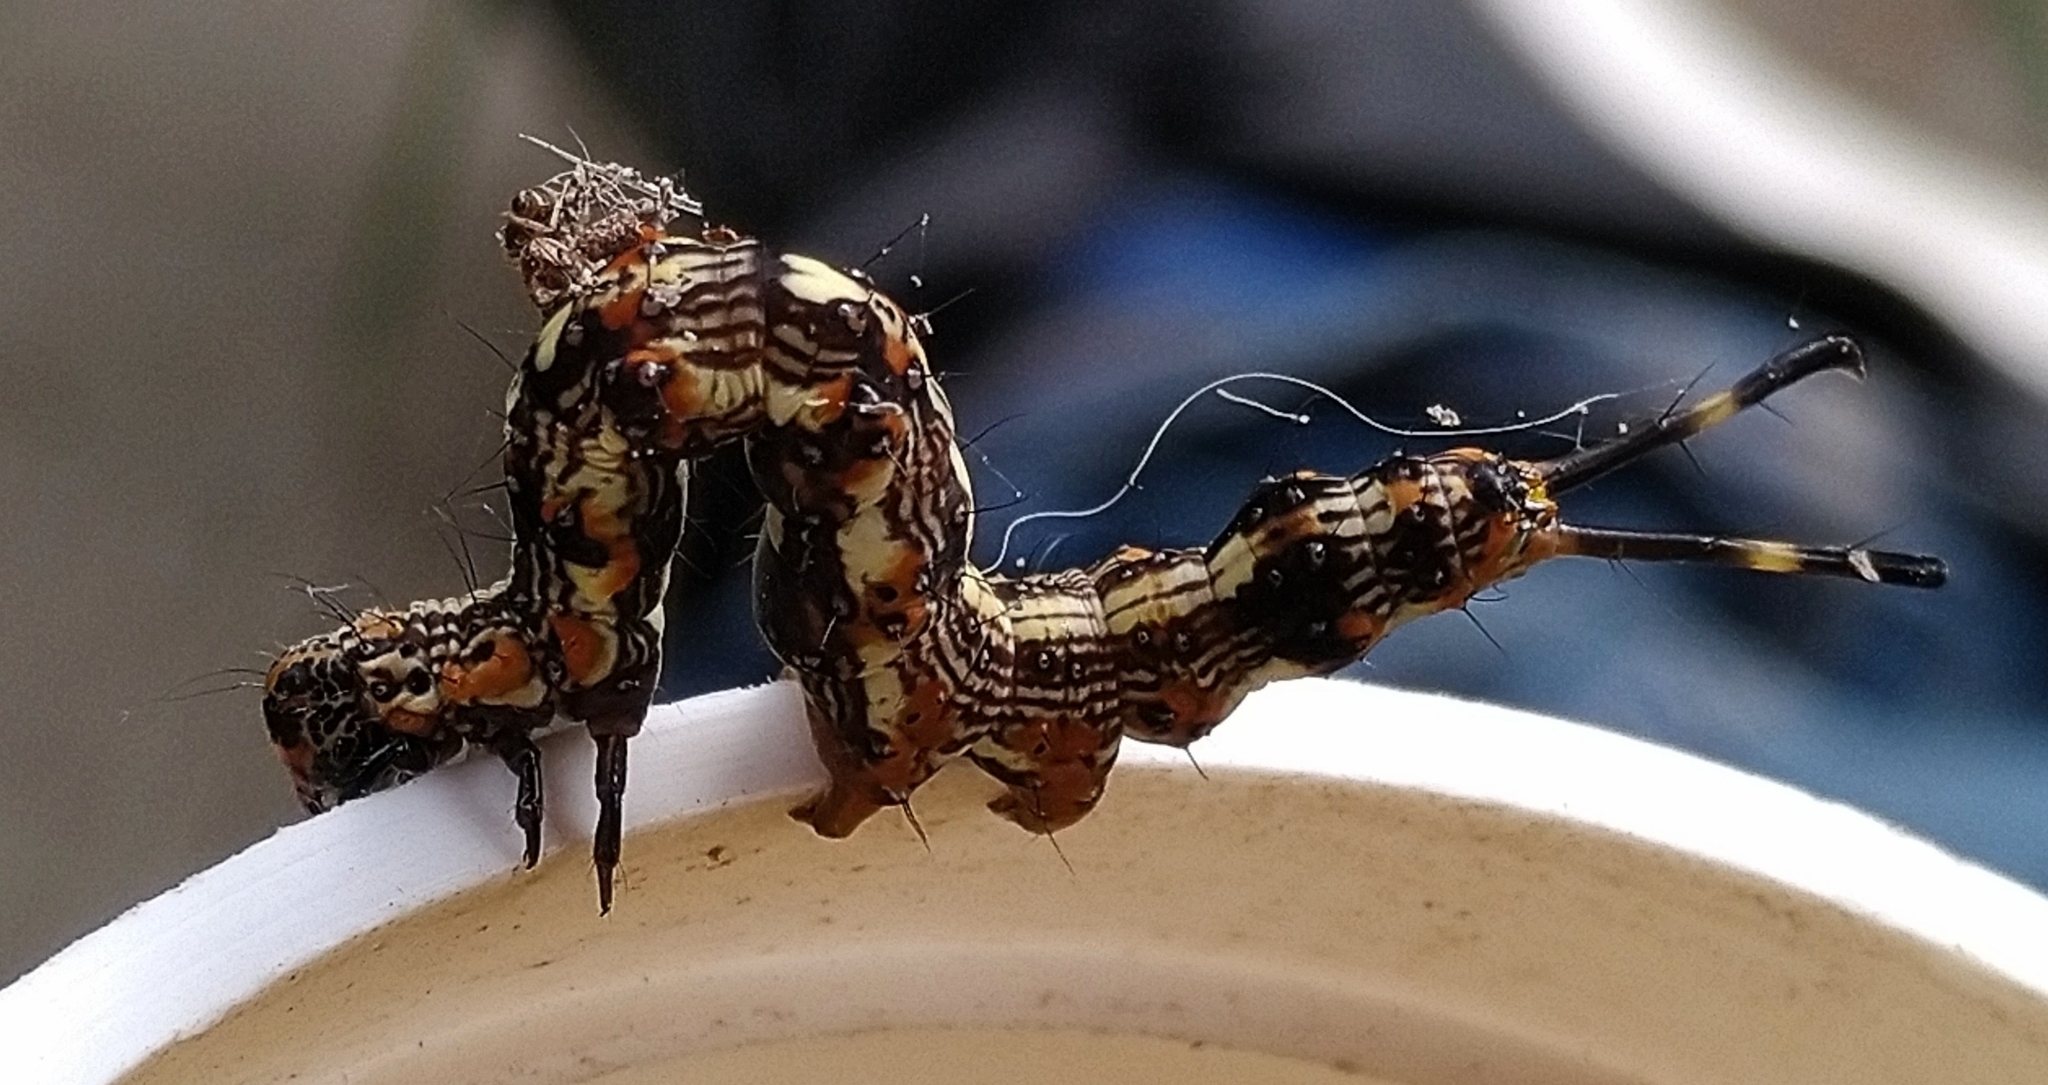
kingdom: Animalia
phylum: Arthropoda
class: Insecta
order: Lepidoptera
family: Erebidae
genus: Selenisa
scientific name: Selenisa sueroides
